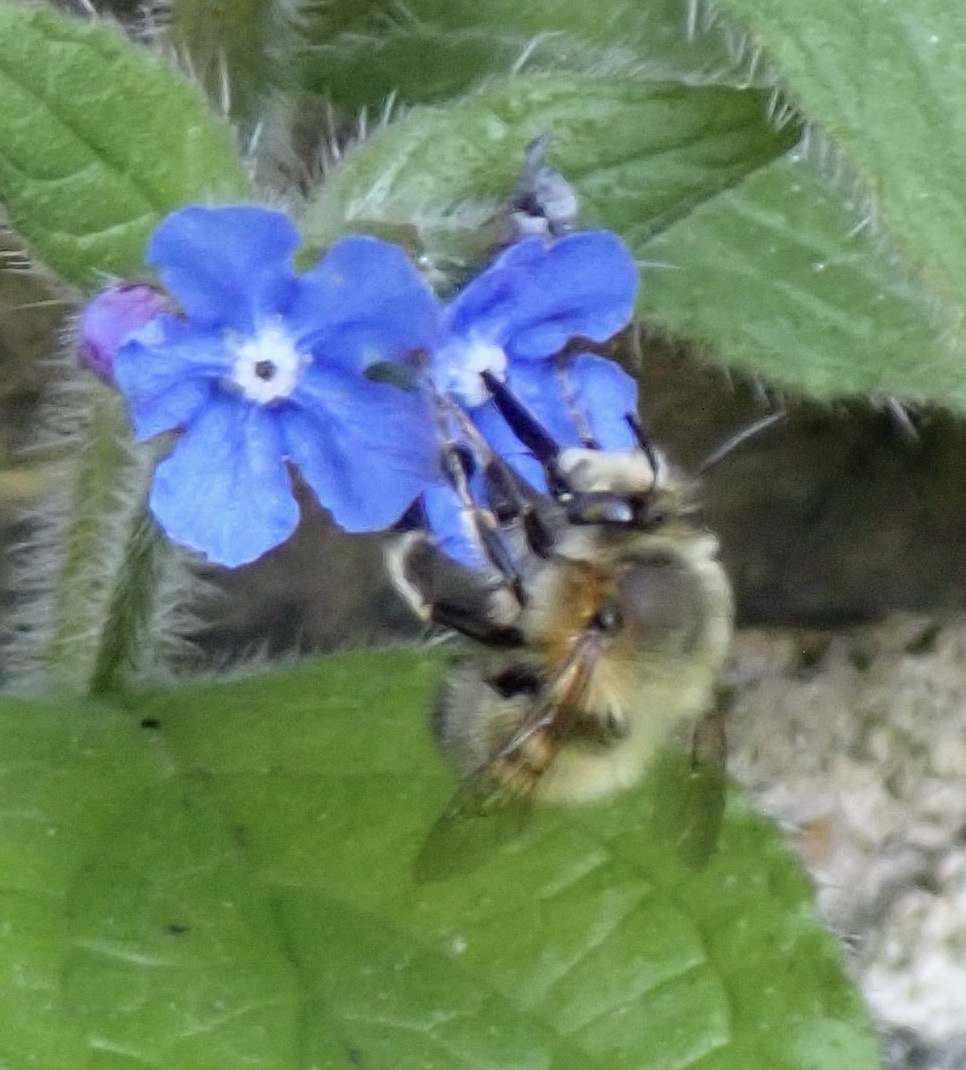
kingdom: Animalia
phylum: Arthropoda
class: Insecta
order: Hymenoptera
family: Apidae
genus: Anthophora
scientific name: Anthophora plumipes
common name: Hairy-footed flower bee
